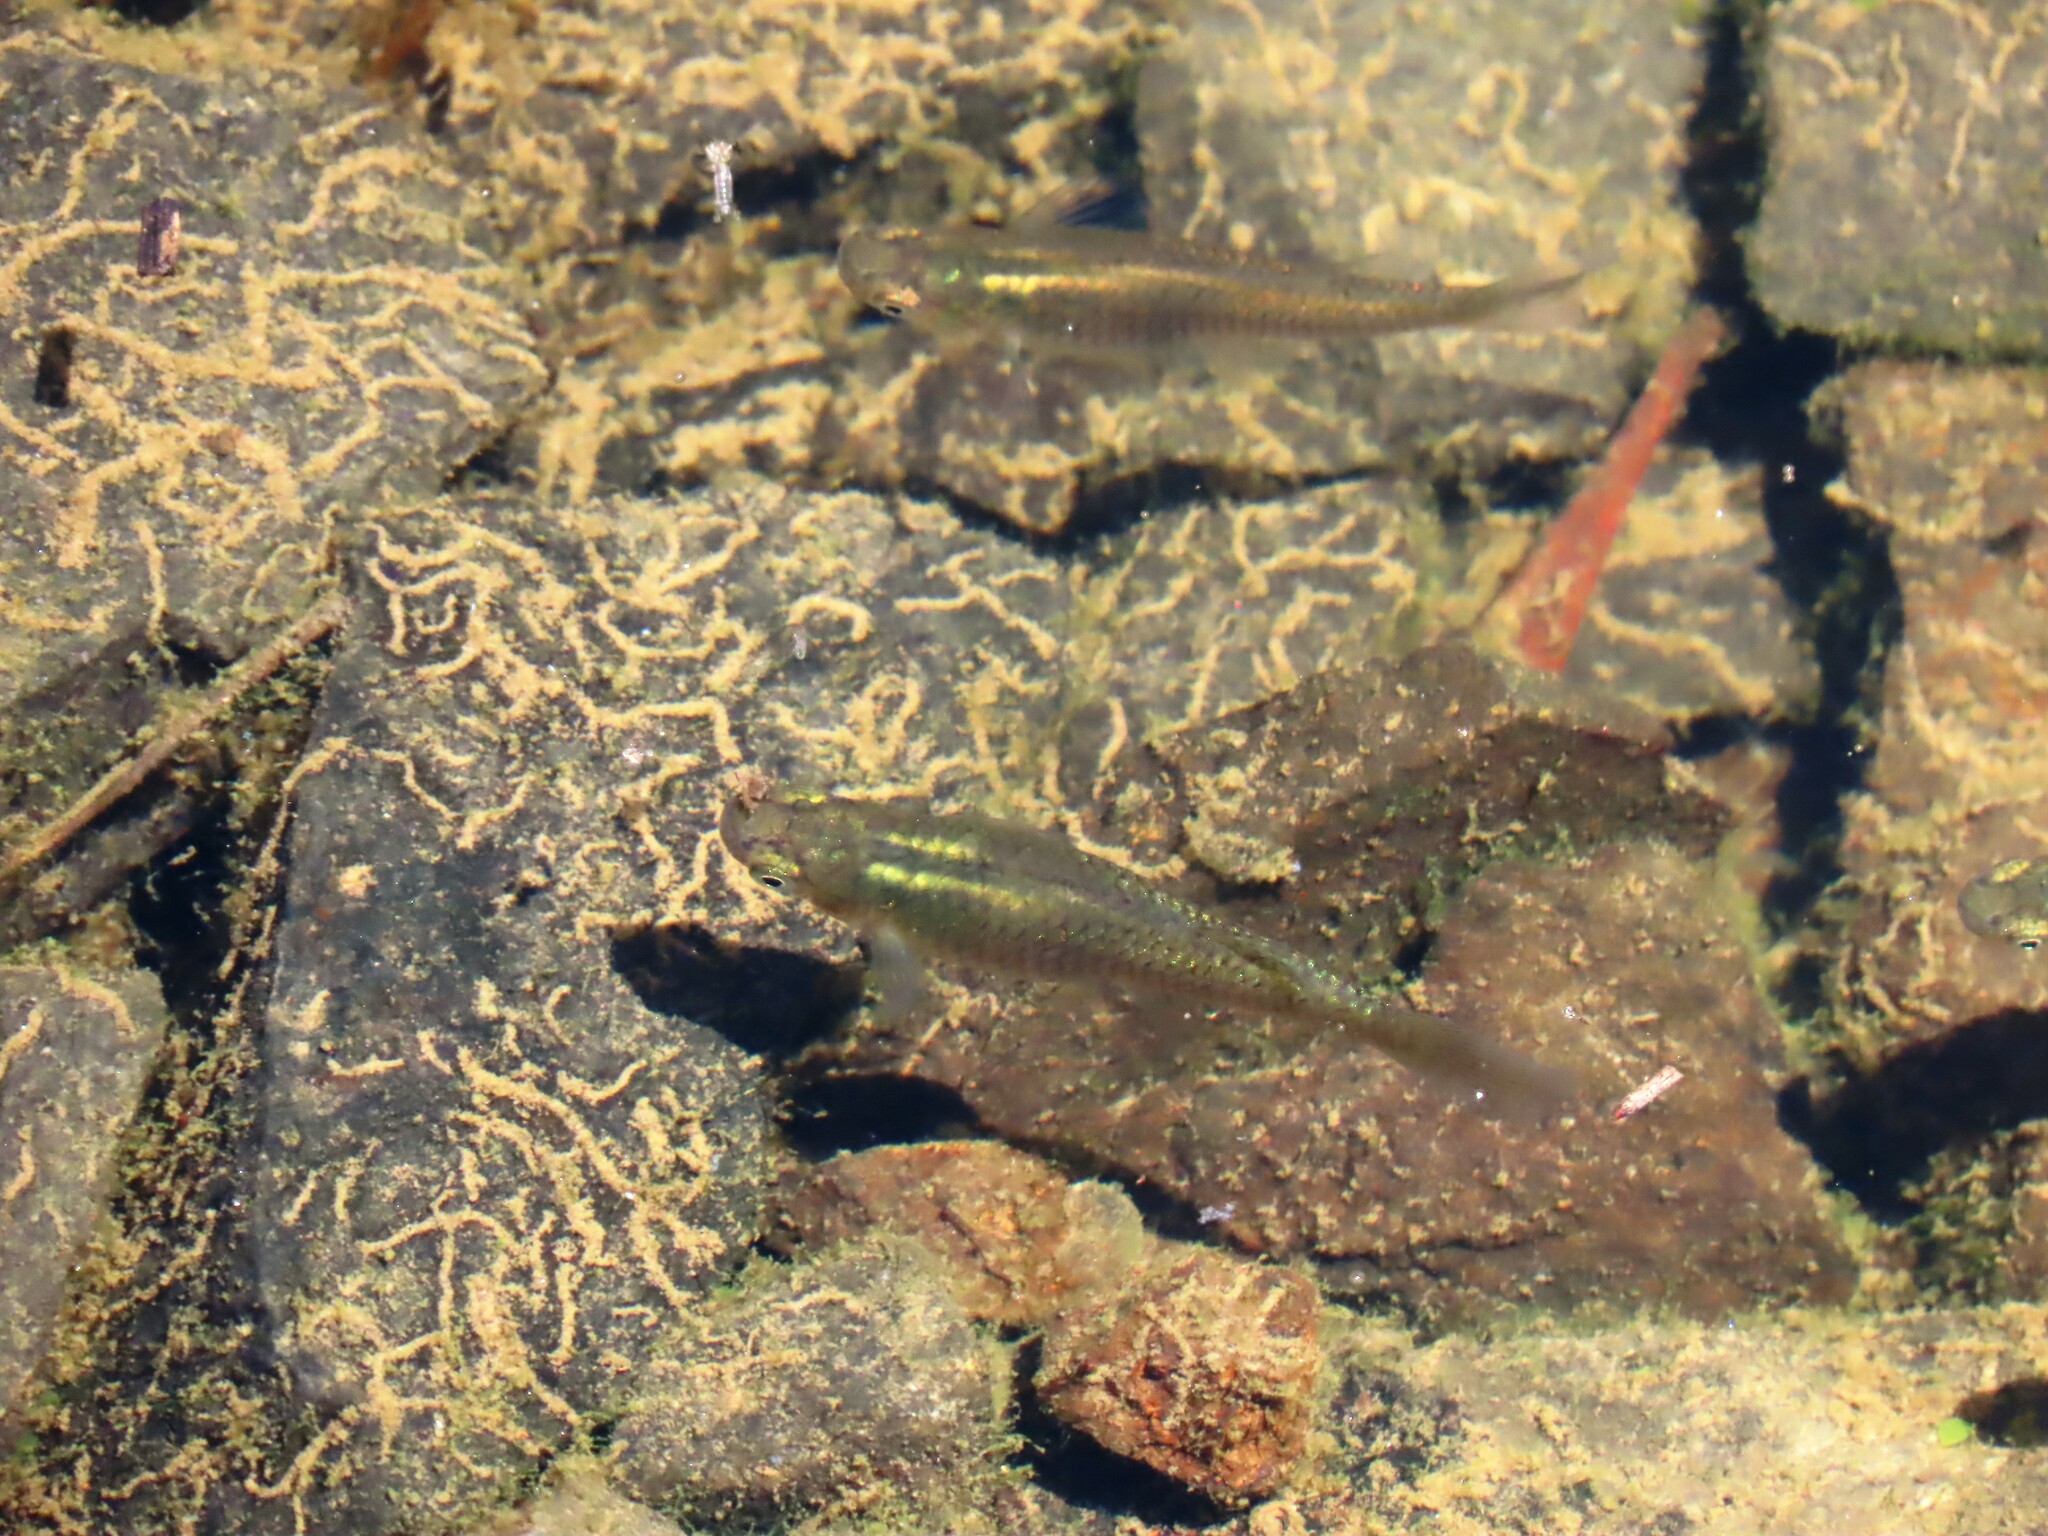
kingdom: Animalia
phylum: Chordata
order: Cyprinodontiformes
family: Poeciliidae
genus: Gambusia
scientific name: Gambusia holbrooki
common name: Eastern mosquitofish
